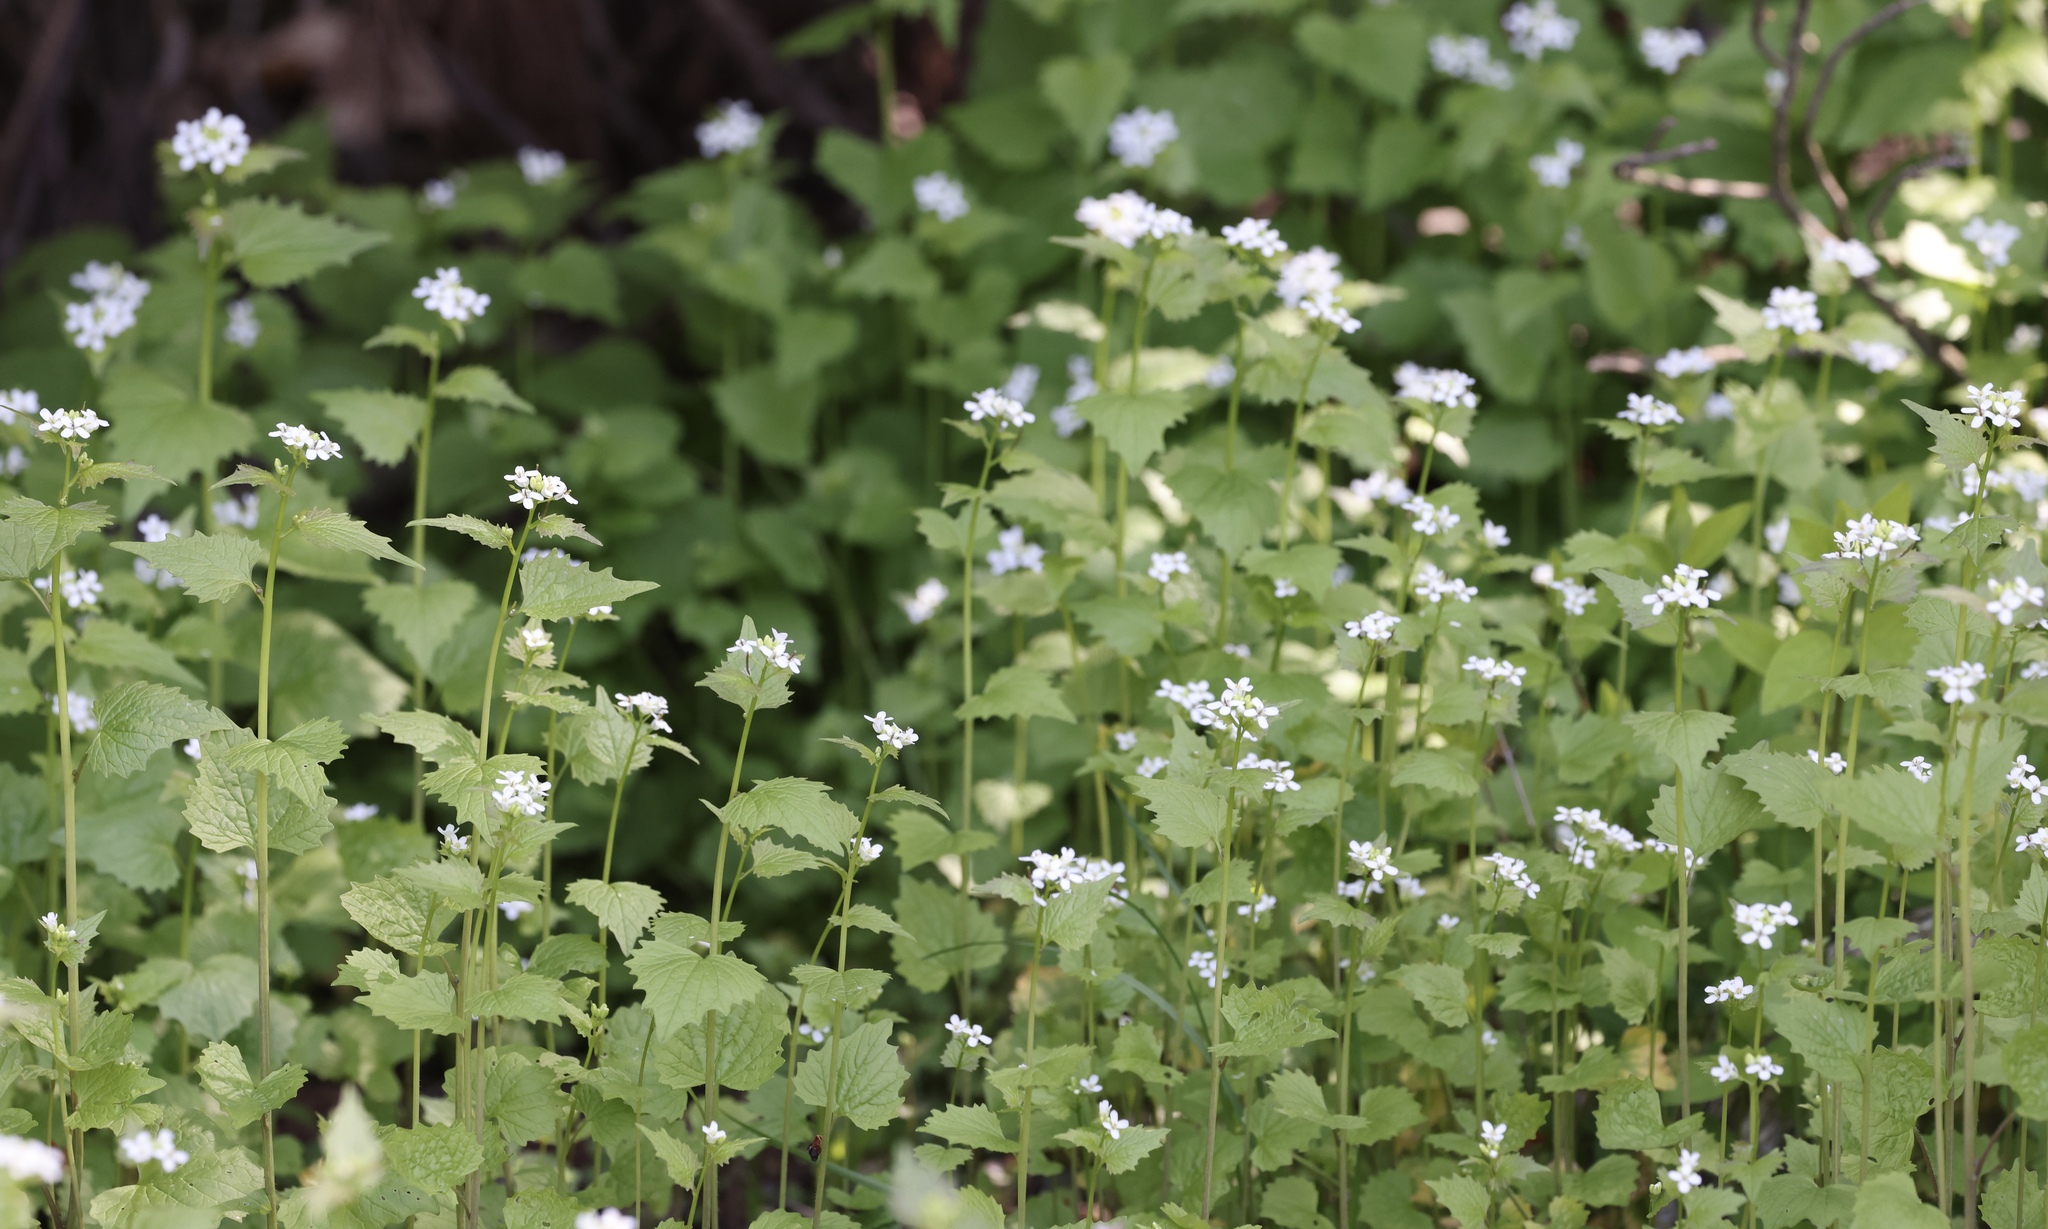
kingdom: Plantae
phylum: Tracheophyta
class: Magnoliopsida
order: Brassicales
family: Brassicaceae
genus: Alliaria
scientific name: Alliaria petiolata
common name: Garlic mustard
